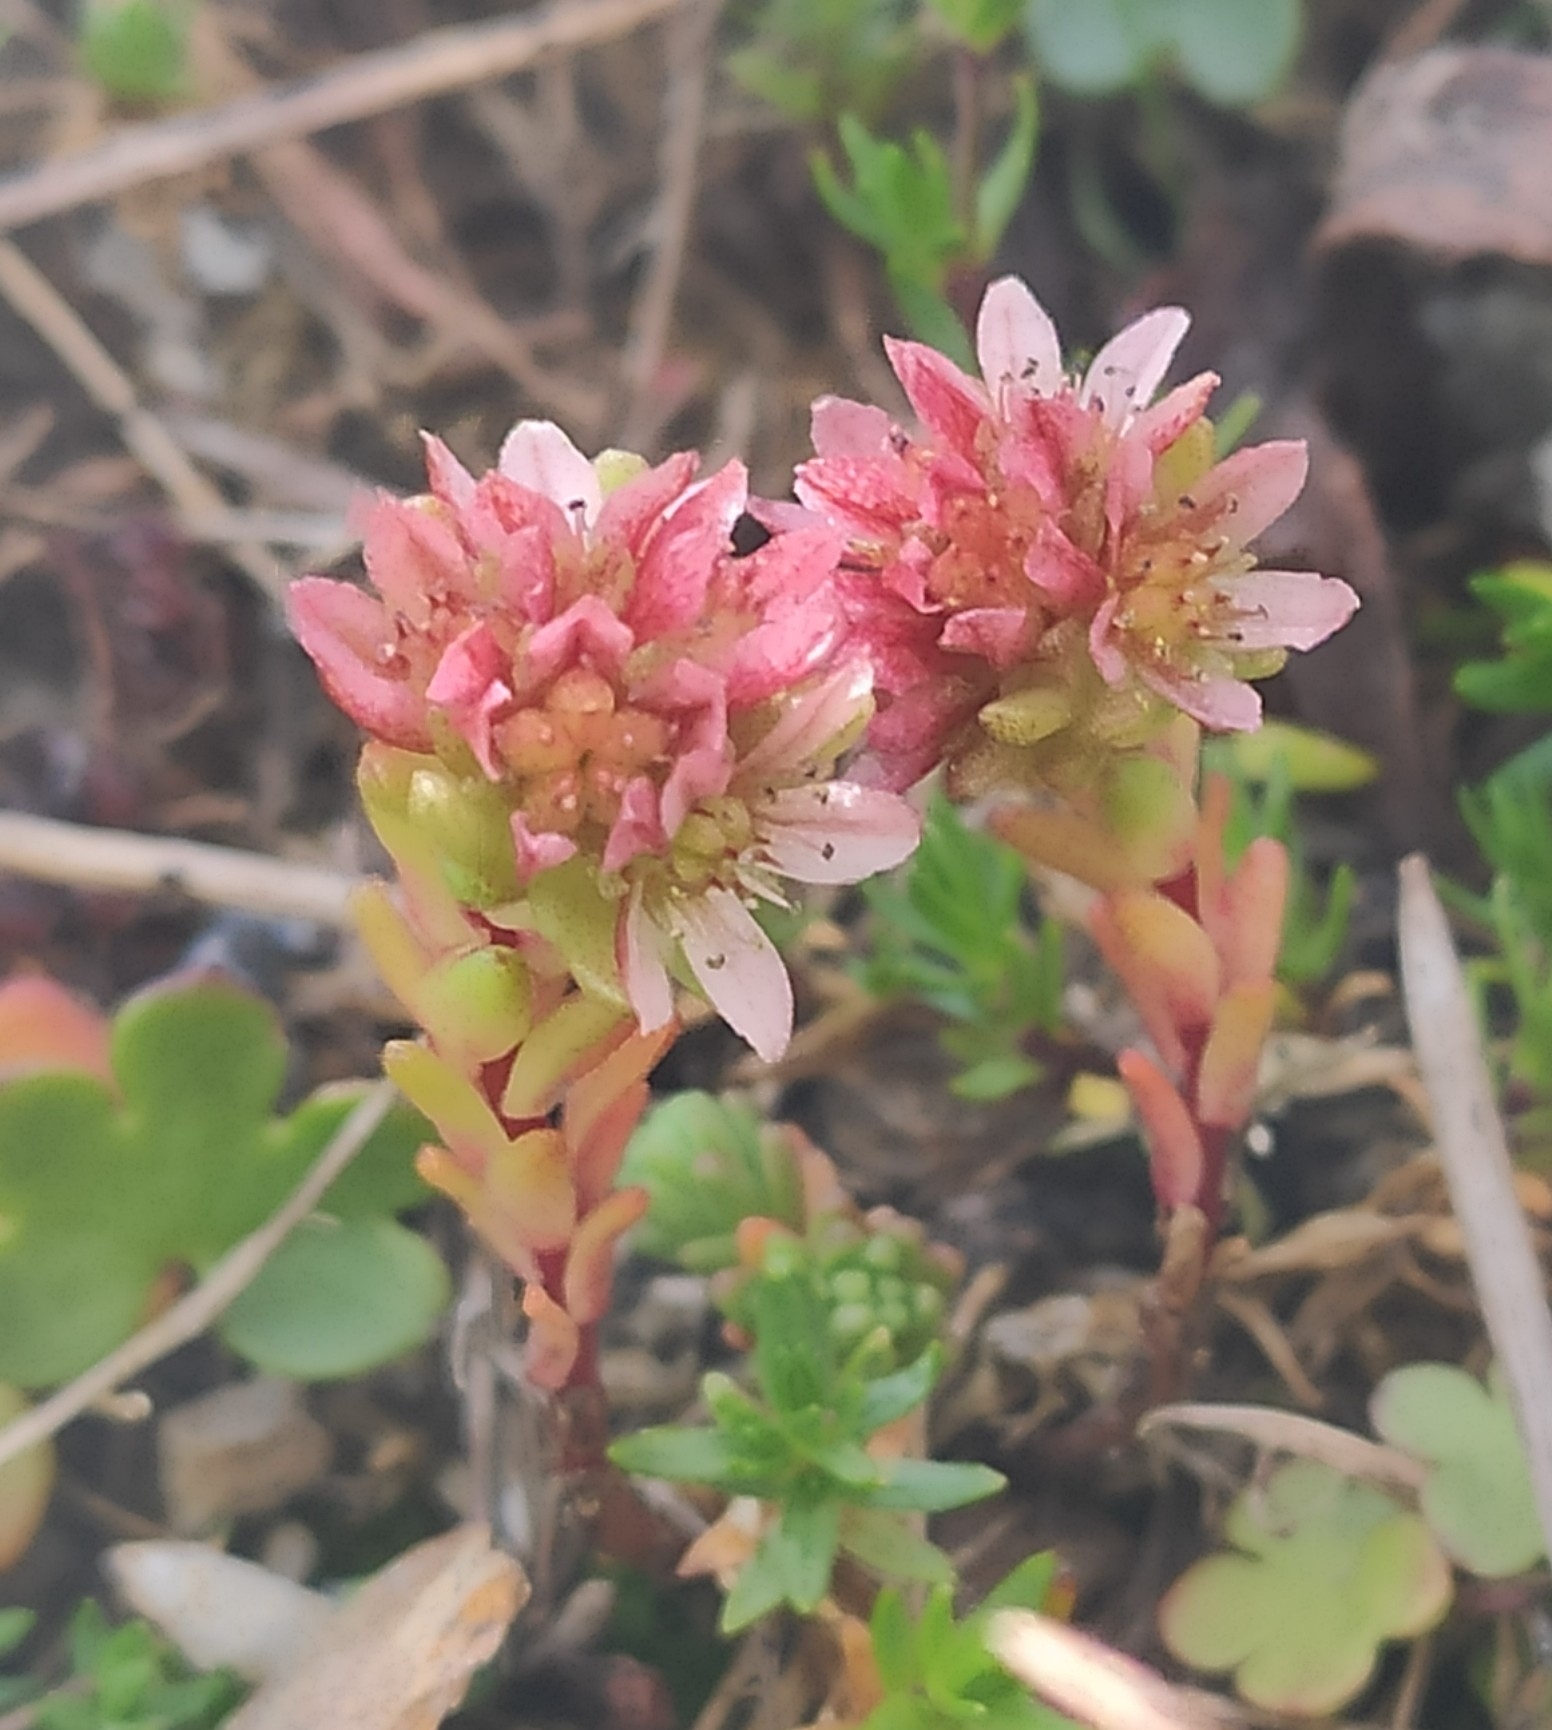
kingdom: Plantae
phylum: Tracheophyta
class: Magnoliopsida
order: Saxifragales
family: Crassulaceae
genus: Sedum
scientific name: Sedum tenellum
